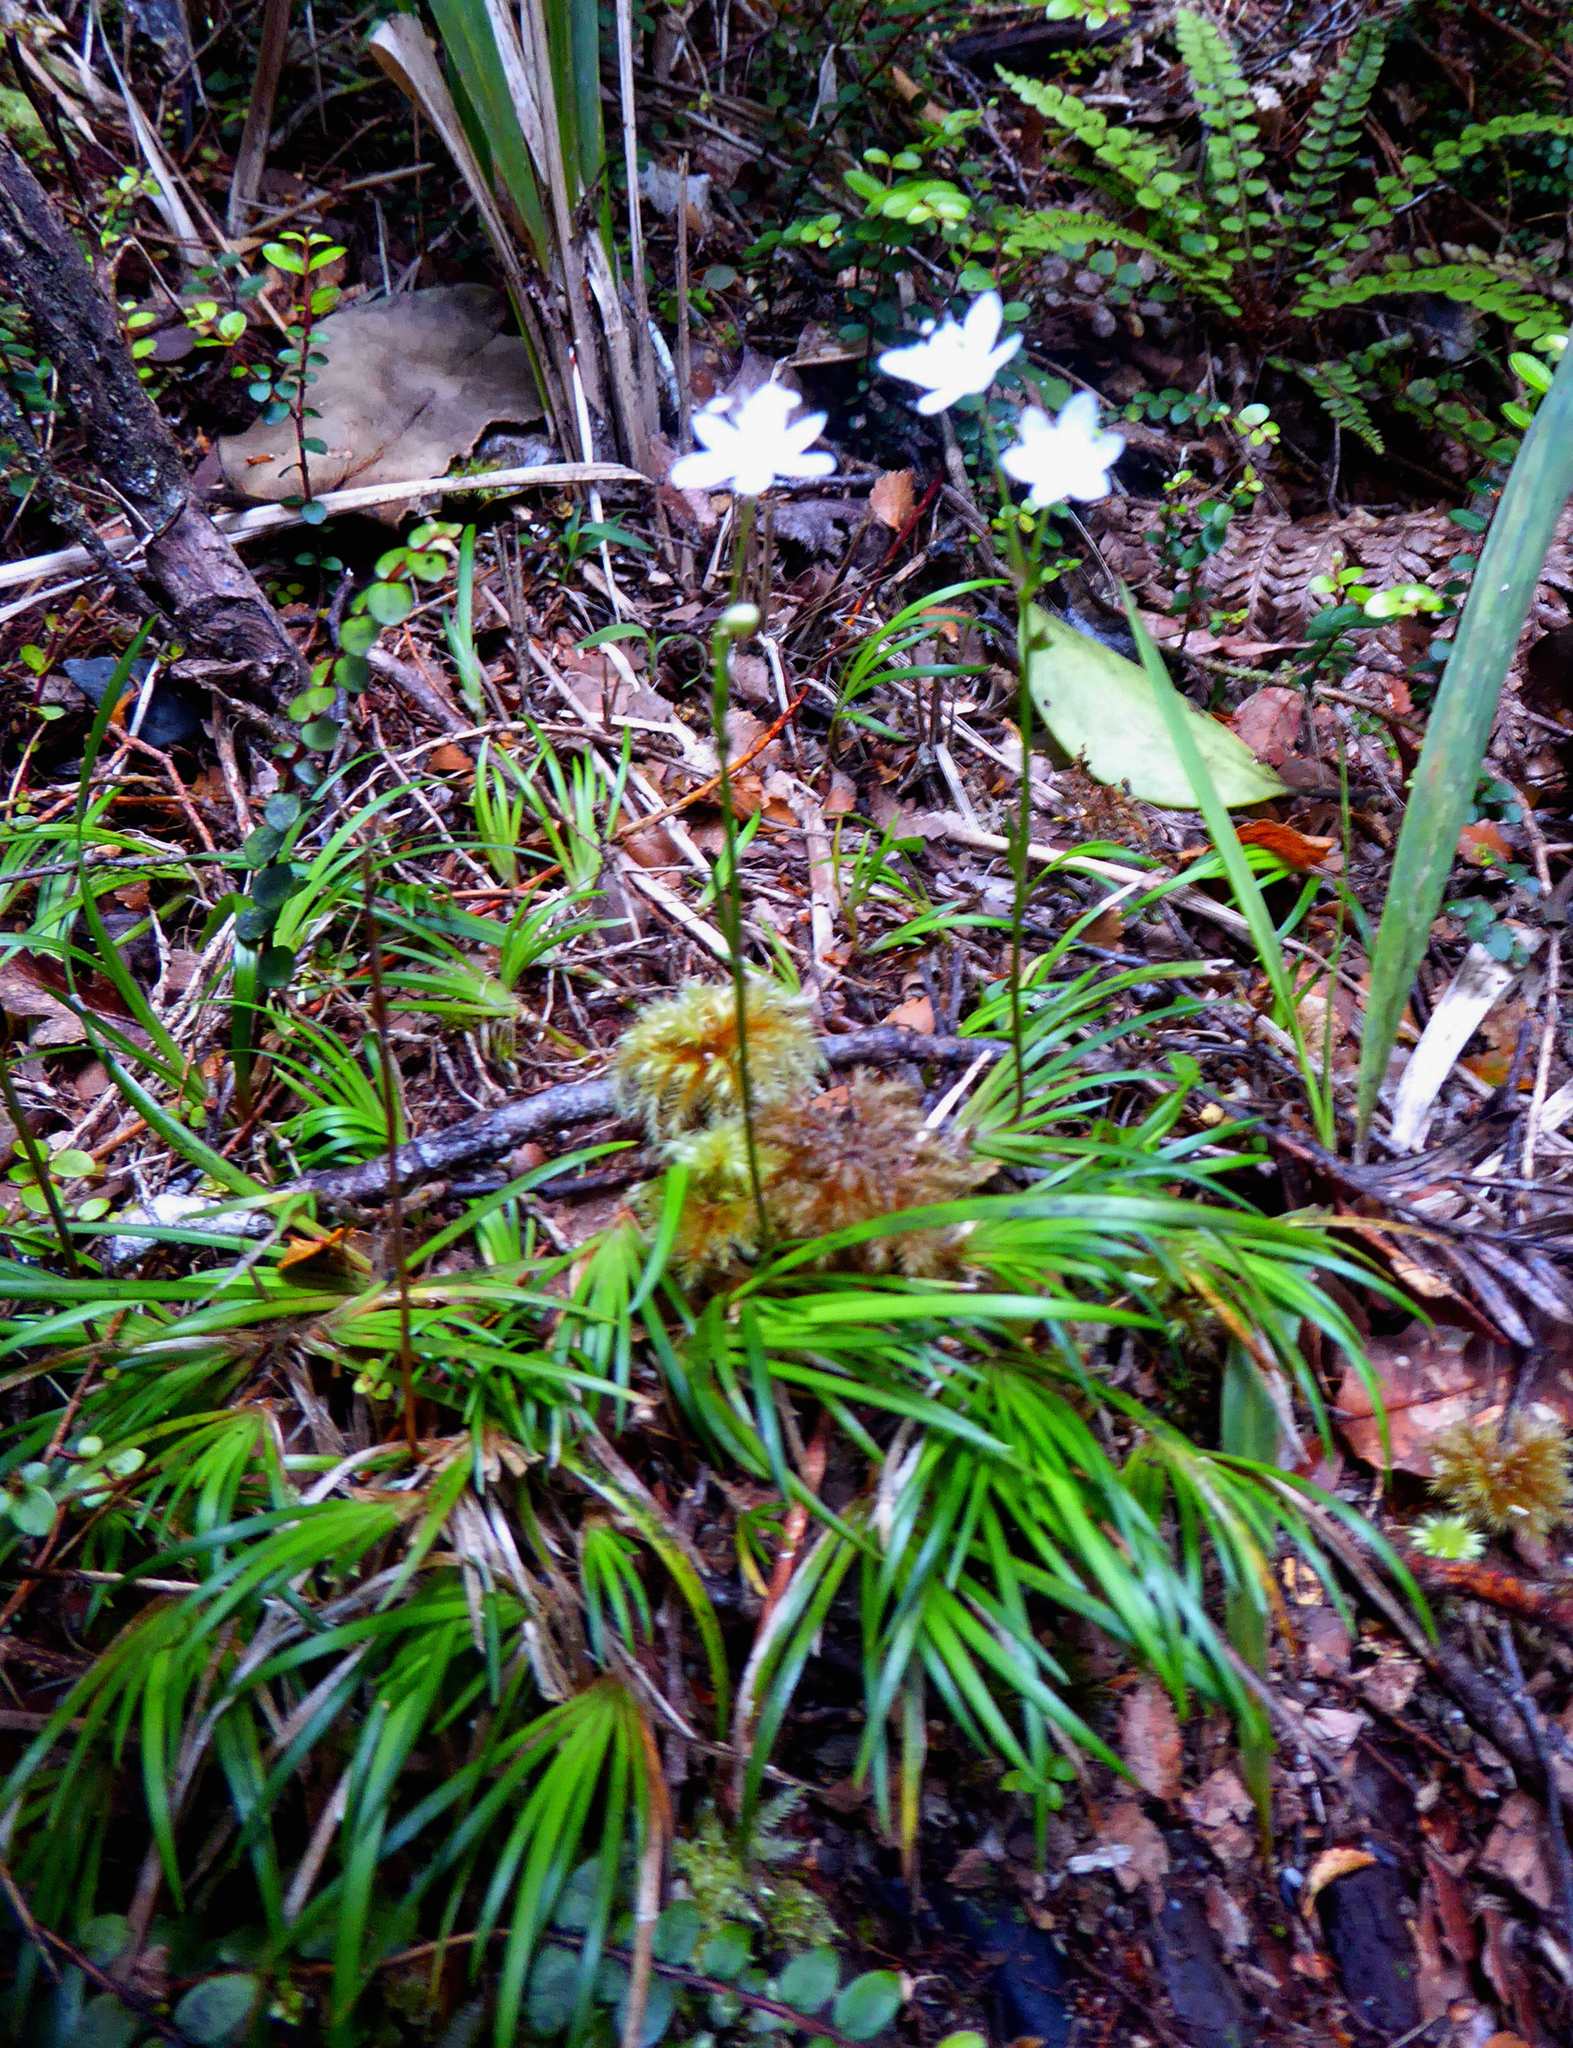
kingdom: Plantae
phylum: Tracheophyta
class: Liliopsida
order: Asparagales
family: Iridaceae
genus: Libertia
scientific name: Libertia micrantha
